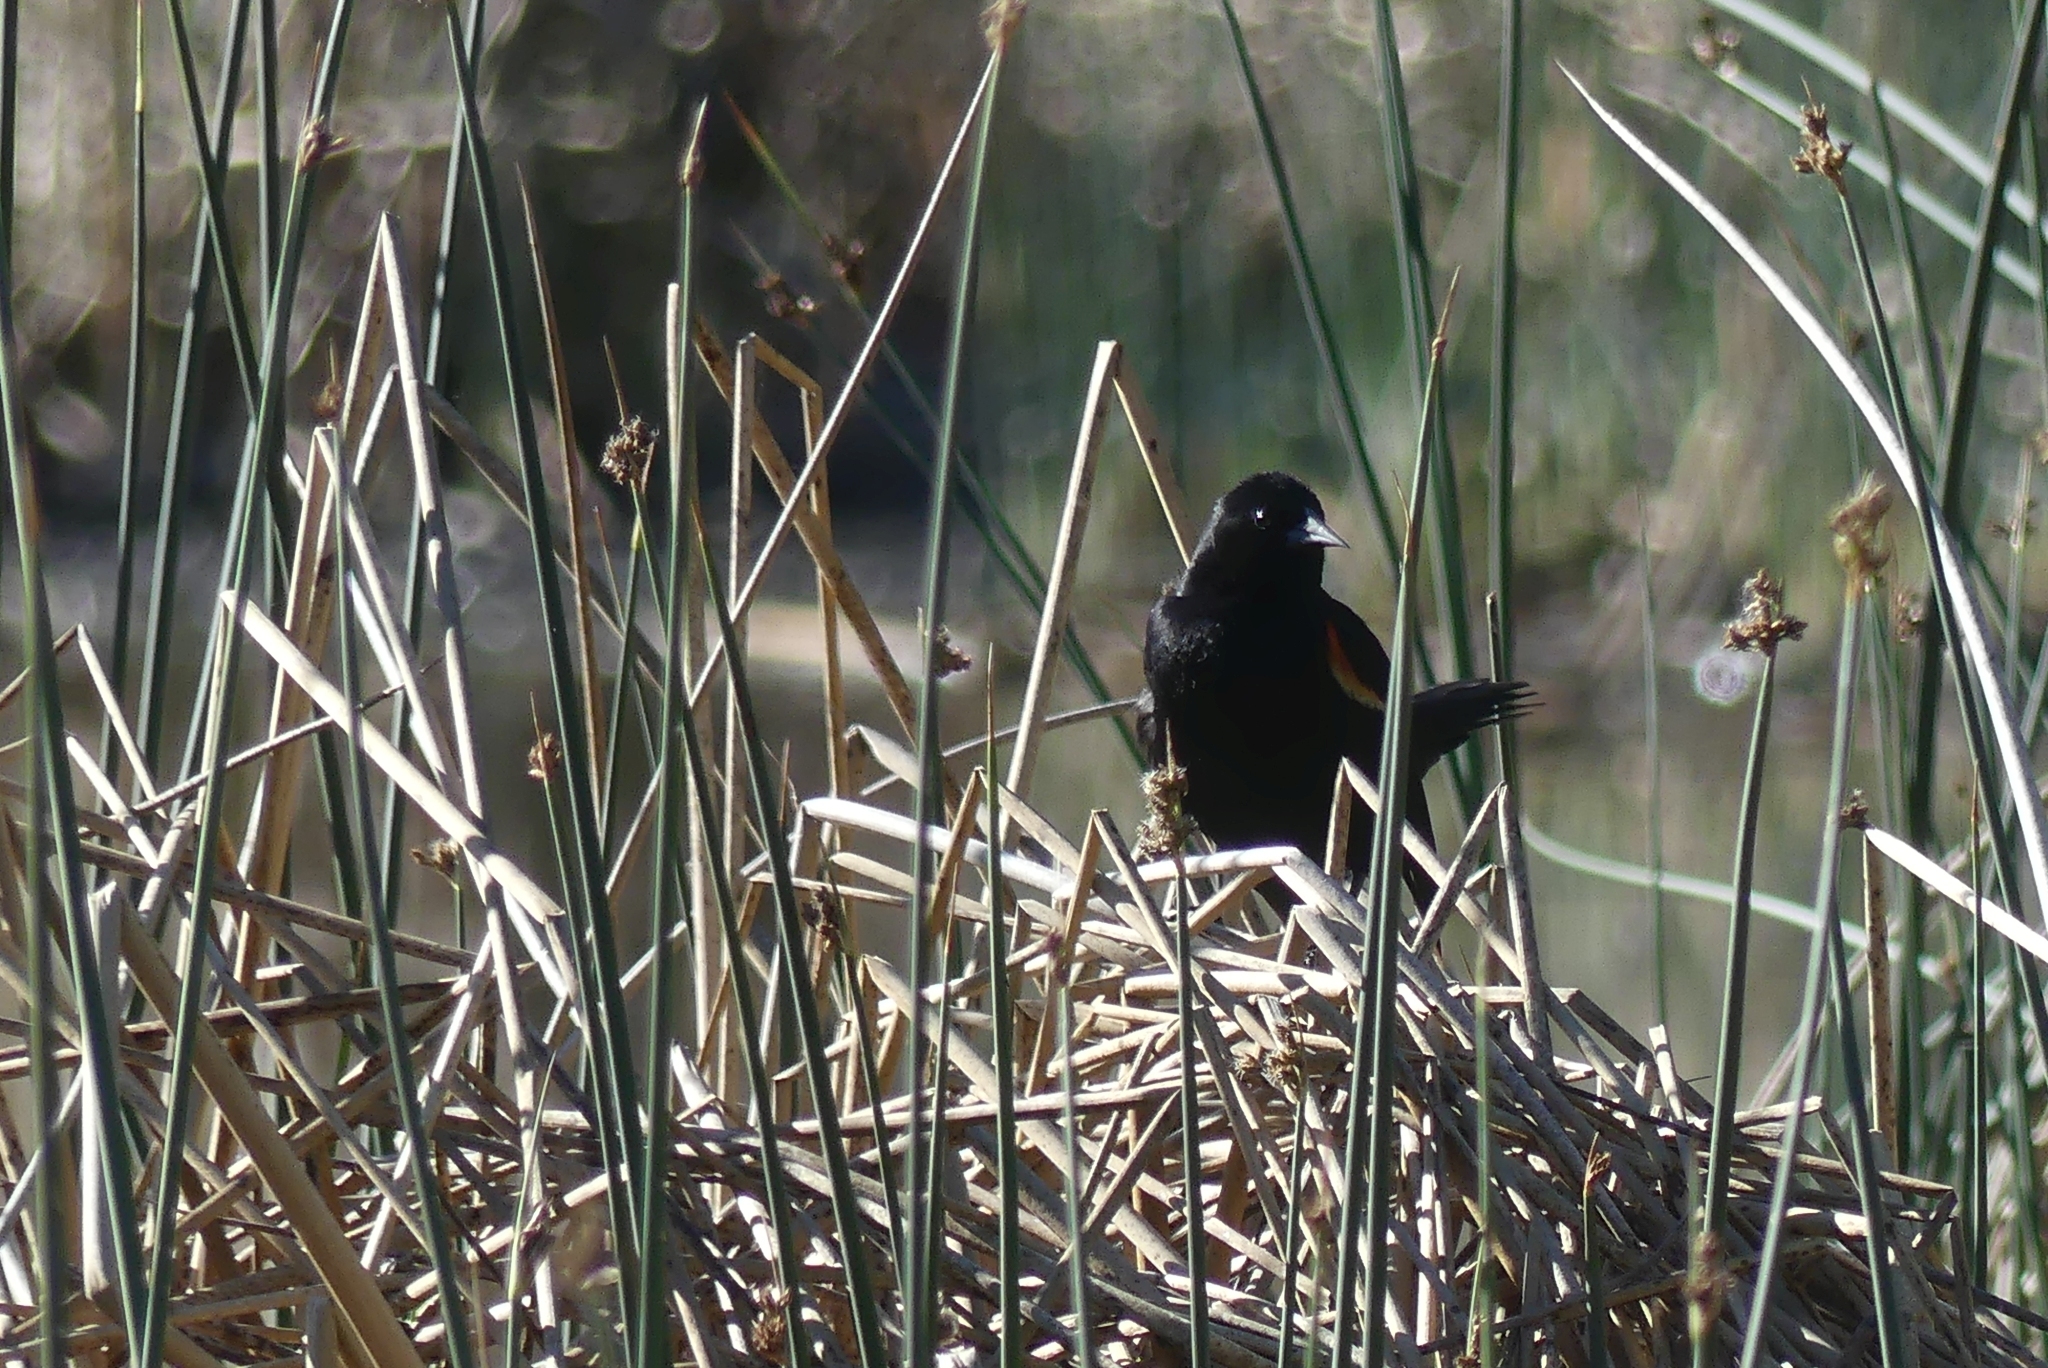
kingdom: Animalia
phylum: Chordata
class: Aves
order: Passeriformes
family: Icteridae
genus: Agelaius
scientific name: Agelaius phoeniceus
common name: Red-winged blackbird
